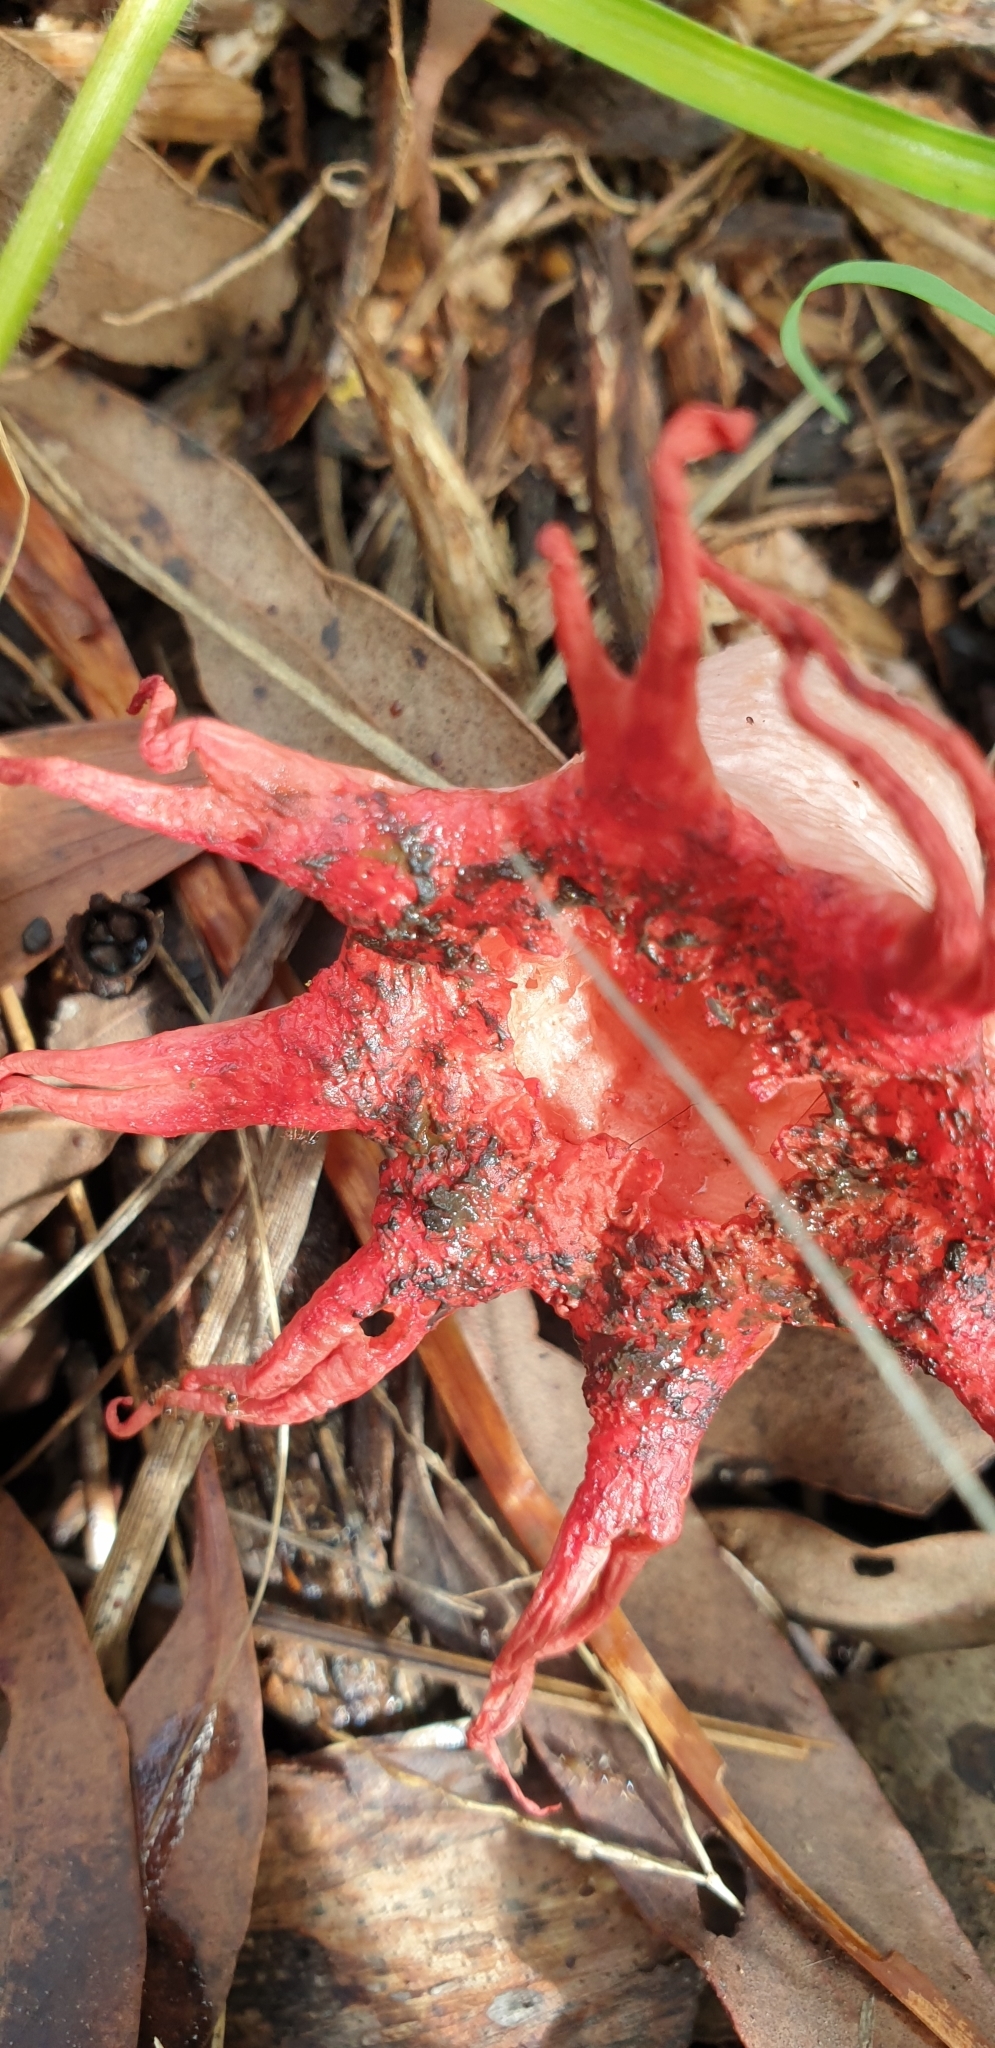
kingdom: Fungi
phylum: Basidiomycota
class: Agaricomycetes
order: Phallales
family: Phallaceae
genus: Aseroe
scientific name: Aseroe rubra
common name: Starfish fungus
